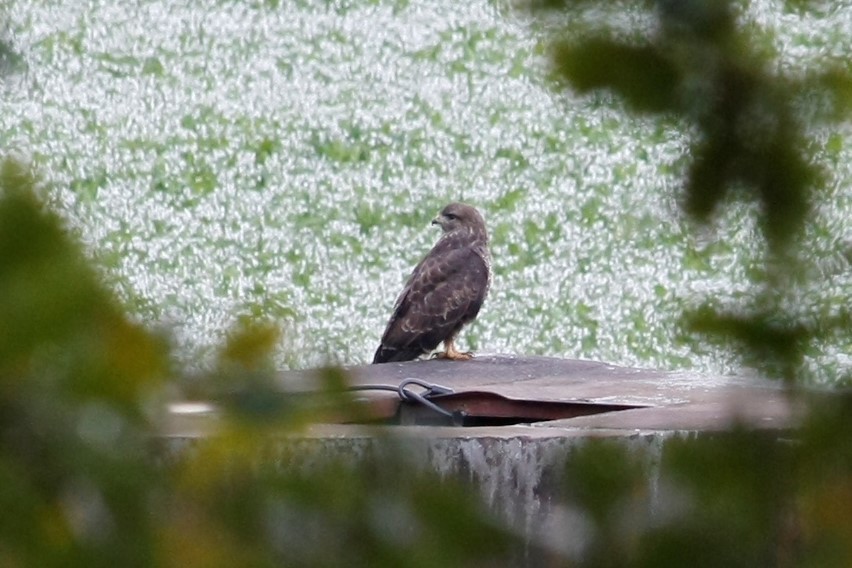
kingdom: Animalia
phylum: Chordata
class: Aves
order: Accipitriformes
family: Accipitridae
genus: Buteo
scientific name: Buteo buteo
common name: Common buzzard
